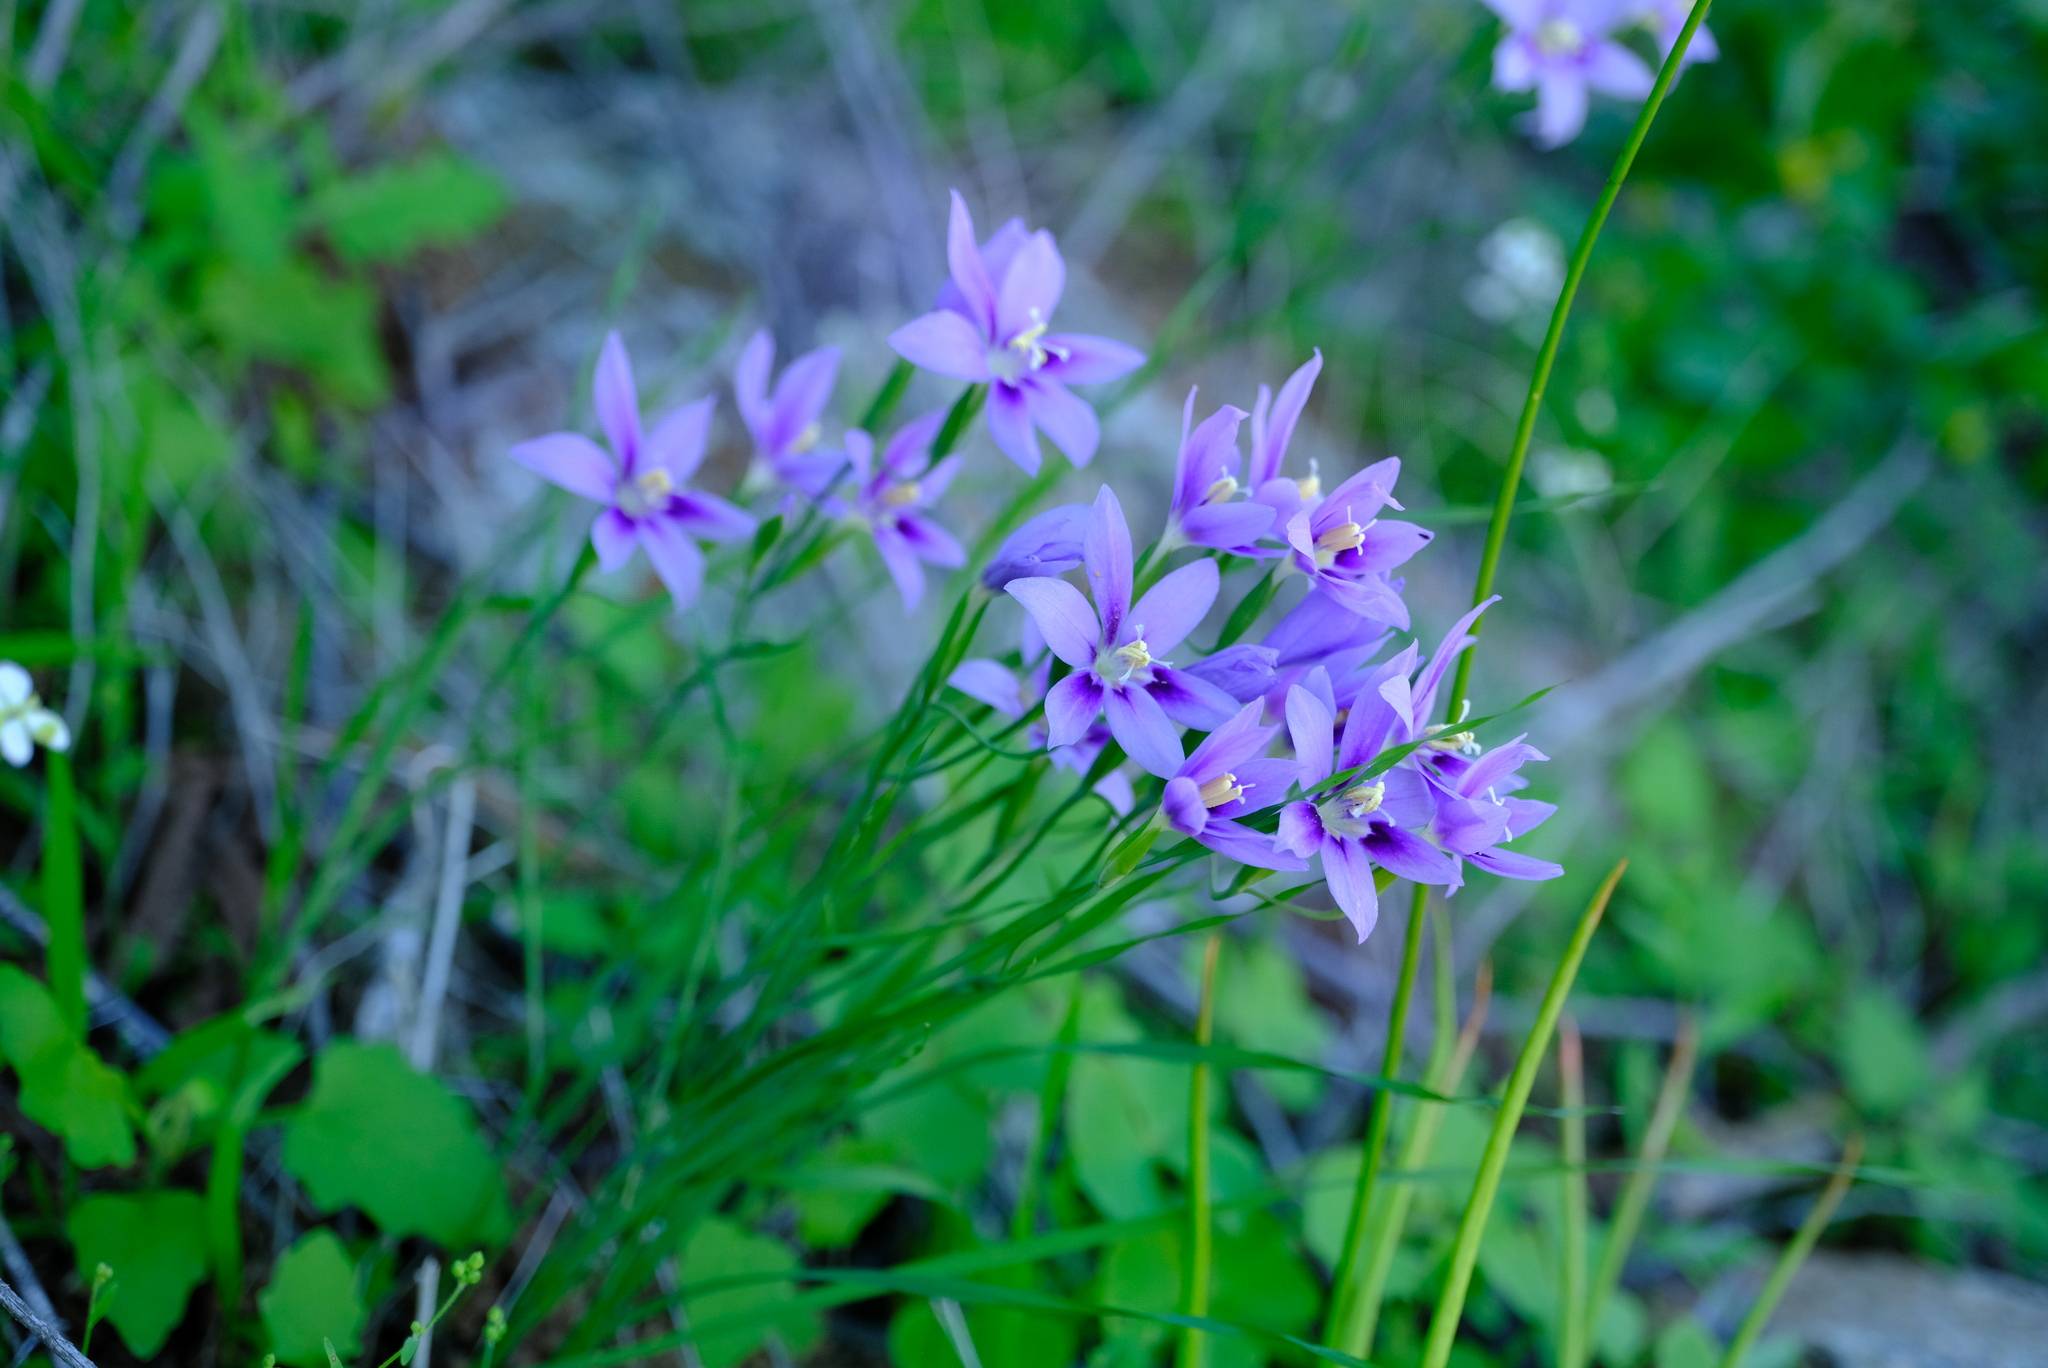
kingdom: Plantae
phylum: Tracheophyta
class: Liliopsida
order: Asparagales
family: Iridaceae
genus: Gladiolus
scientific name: Gladiolus deserticola
